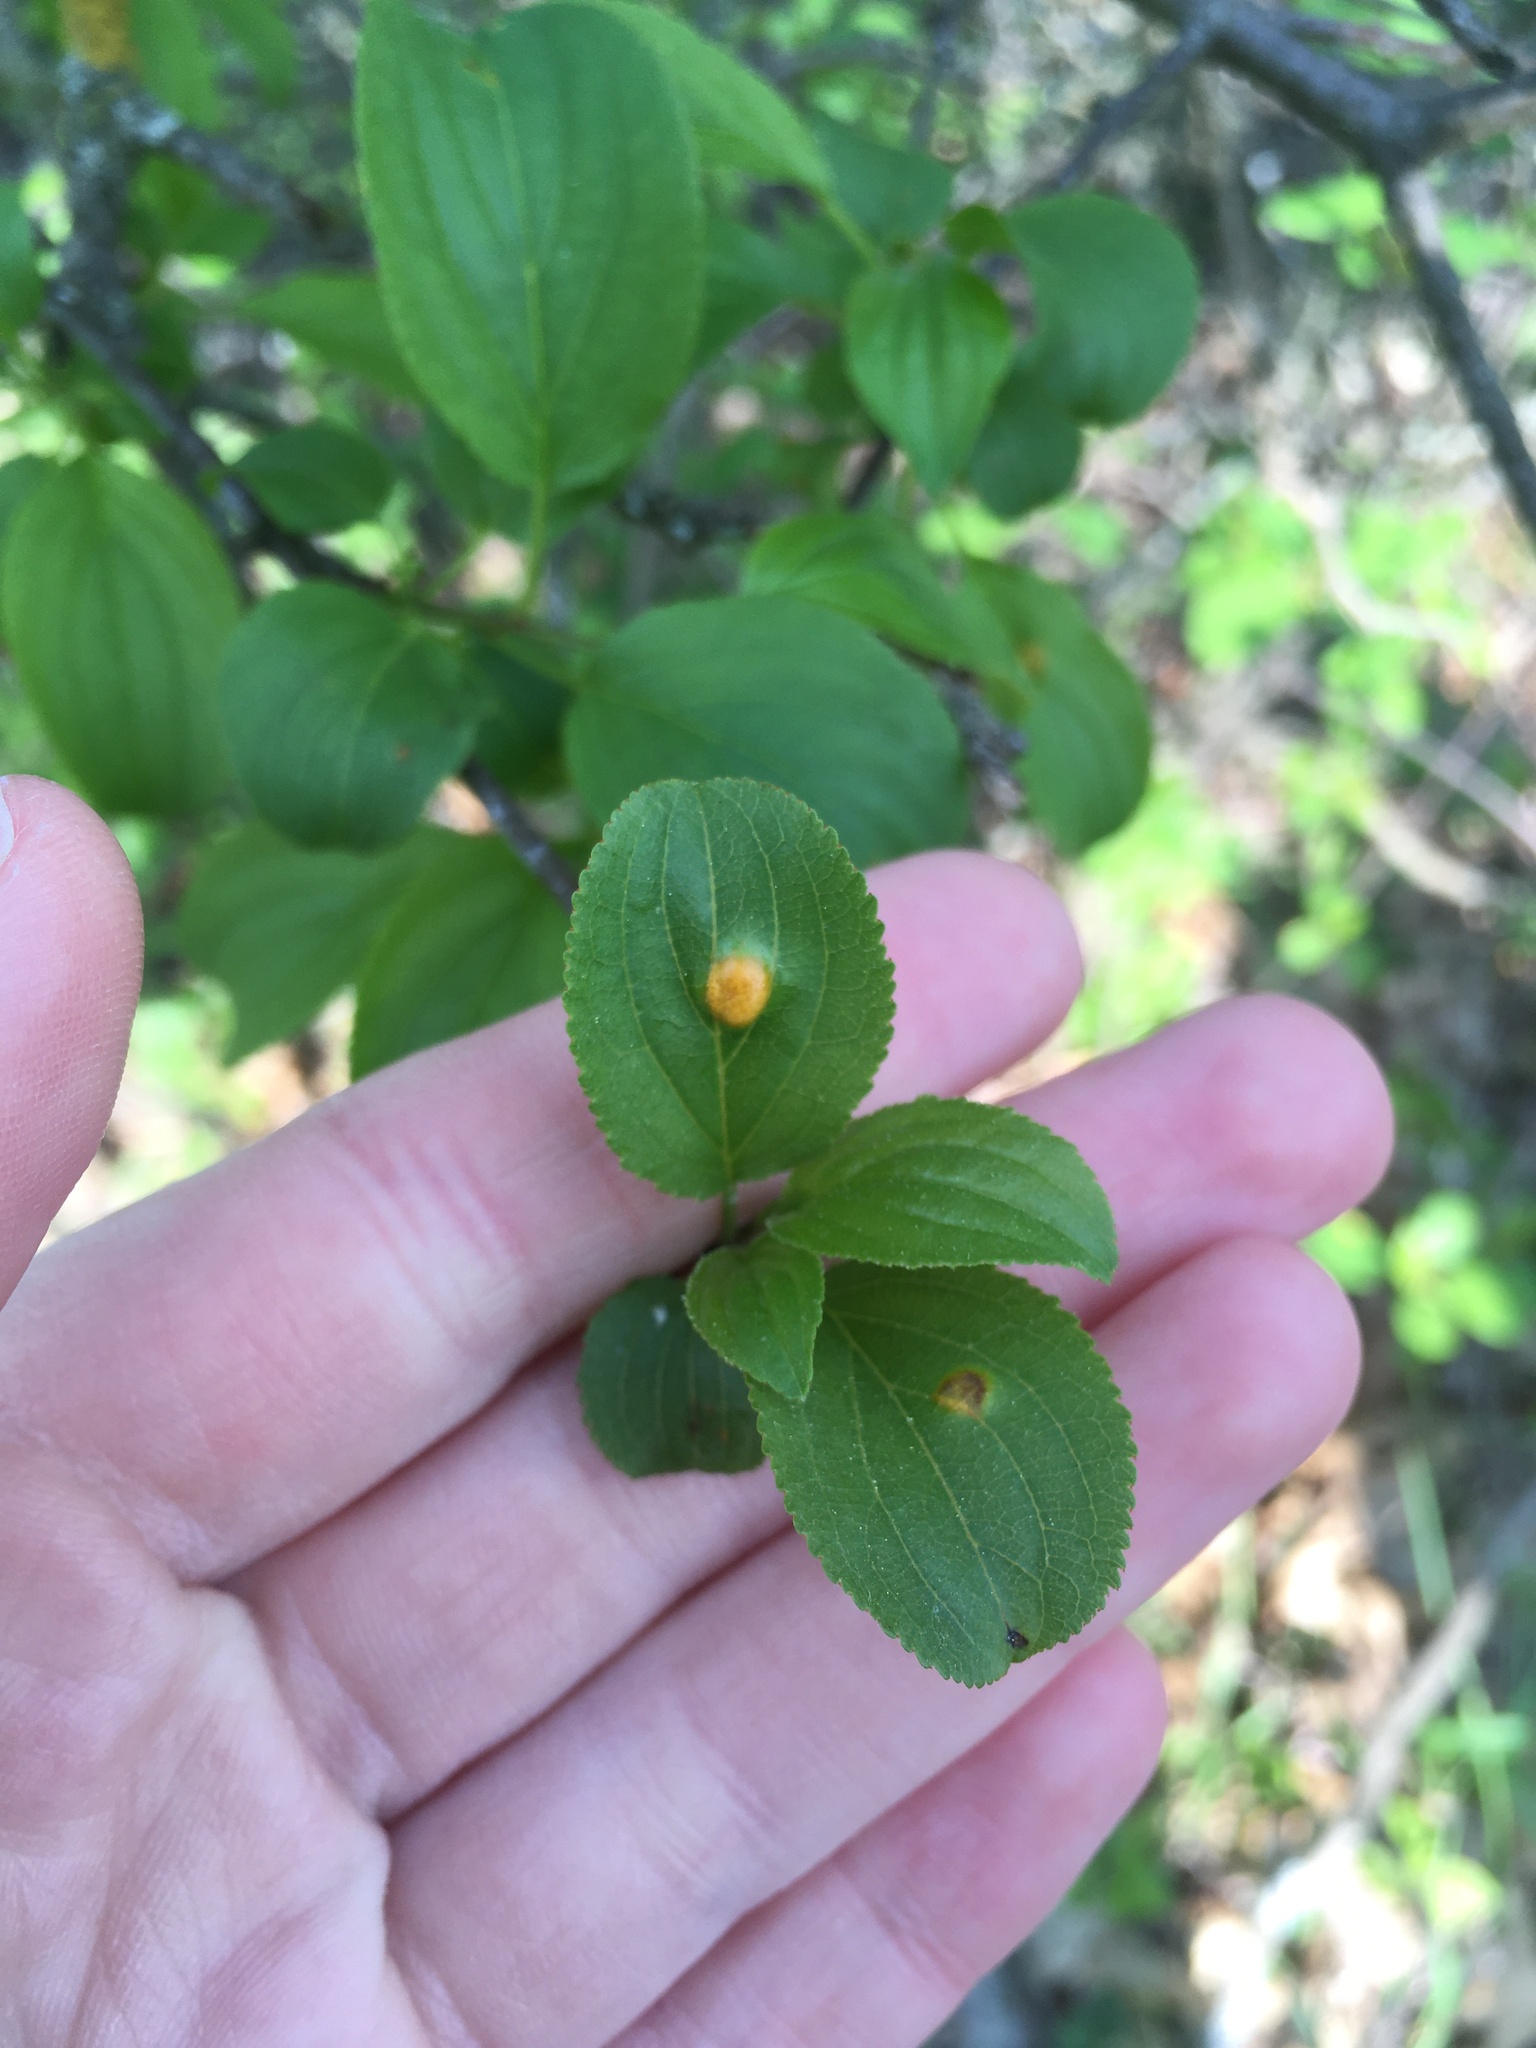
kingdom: Fungi
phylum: Basidiomycota
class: Pucciniomycetes
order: Pucciniales
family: Pucciniaceae
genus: Puccinia
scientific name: Puccinia coronata
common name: Crown rust
